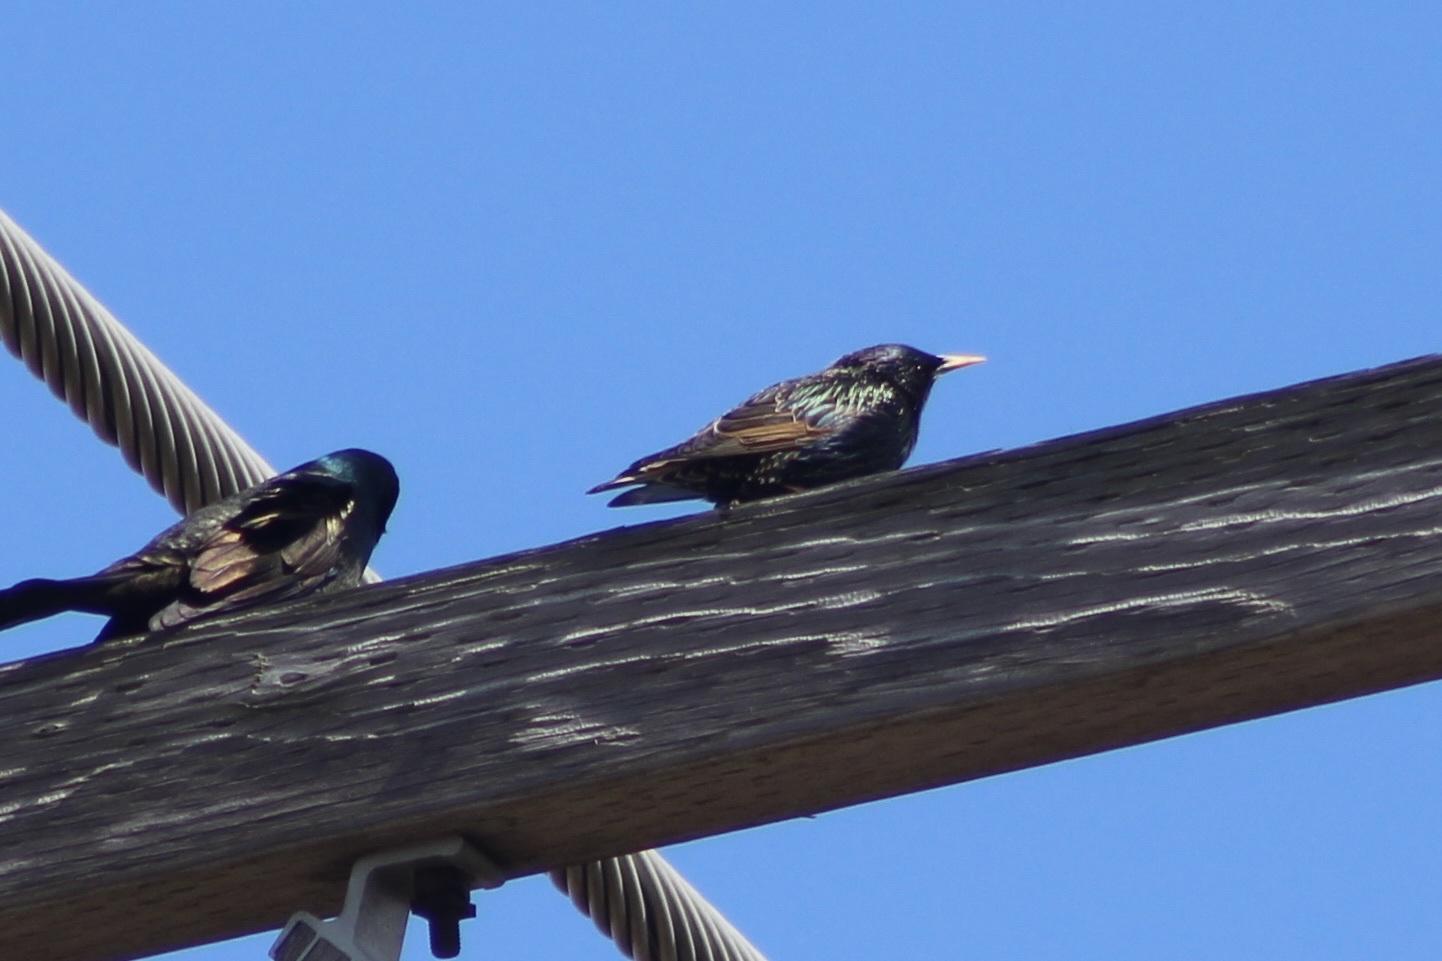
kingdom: Animalia
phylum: Chordata
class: Aves
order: Passeriformes
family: Sturnidae
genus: Sturnus
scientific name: Sturnus vulgaris
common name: Common starling
